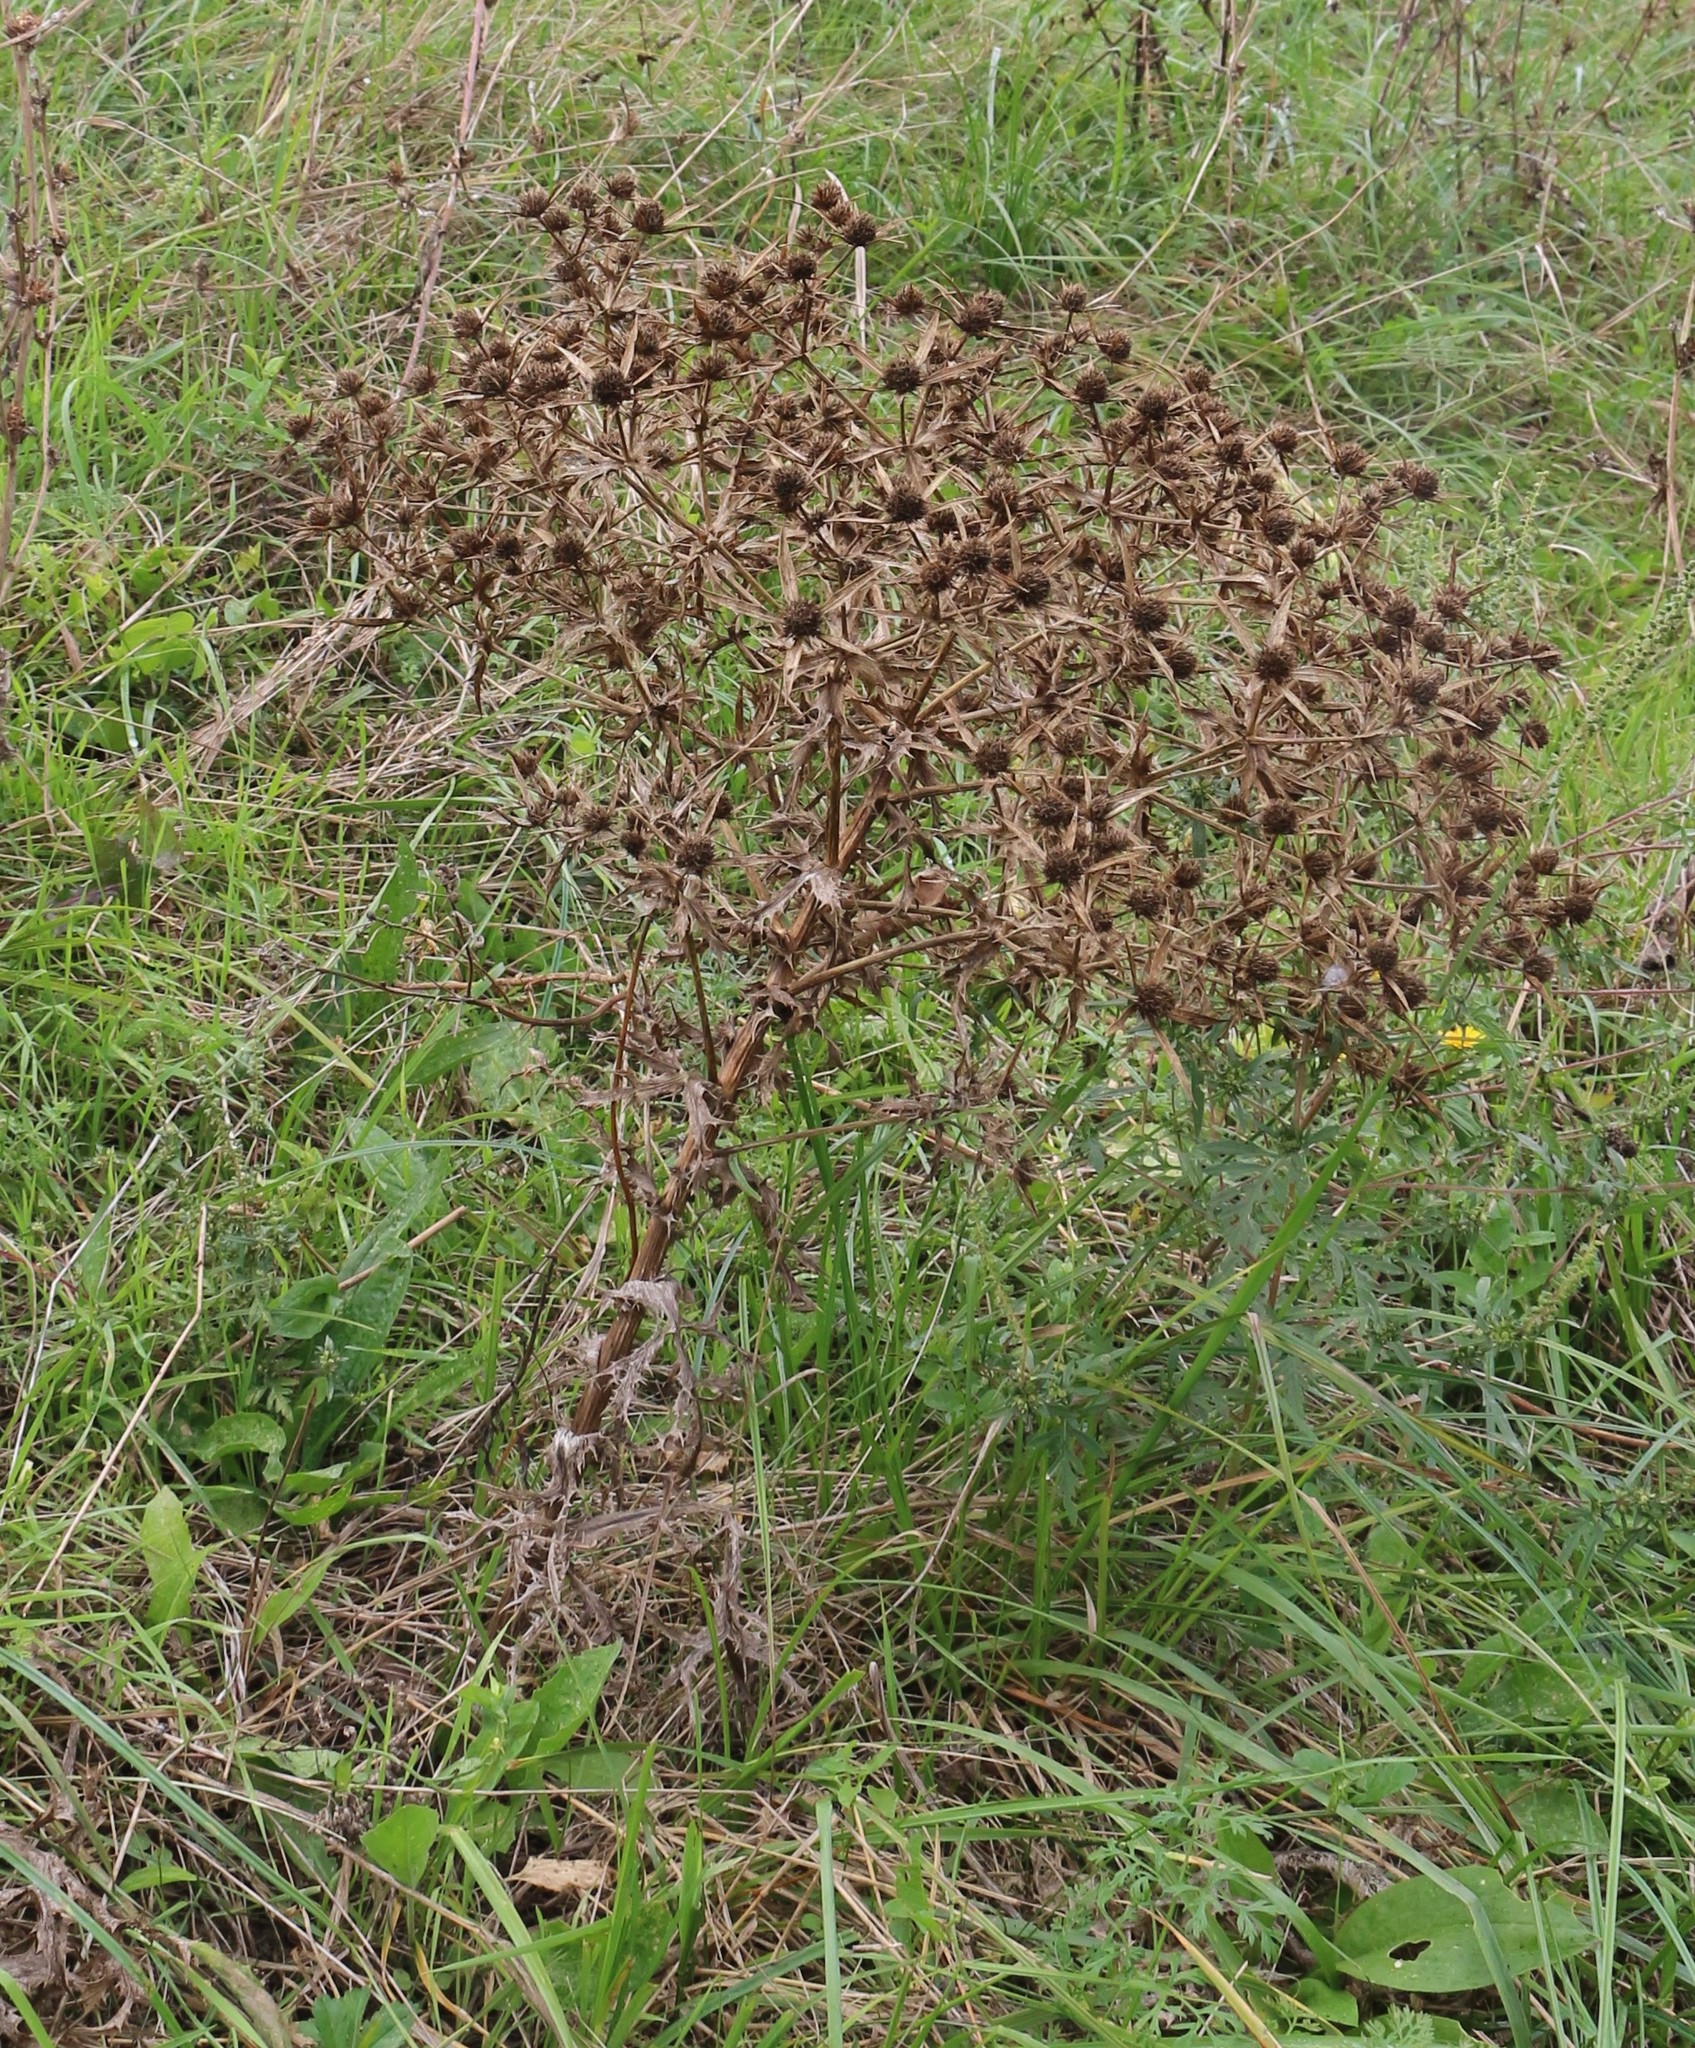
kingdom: Plantae
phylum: Tracheophyta
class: Magnoliopsida
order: Apiales
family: Apiaceae
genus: Eryngium
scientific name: Eryngium campestre
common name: Field eryngo
